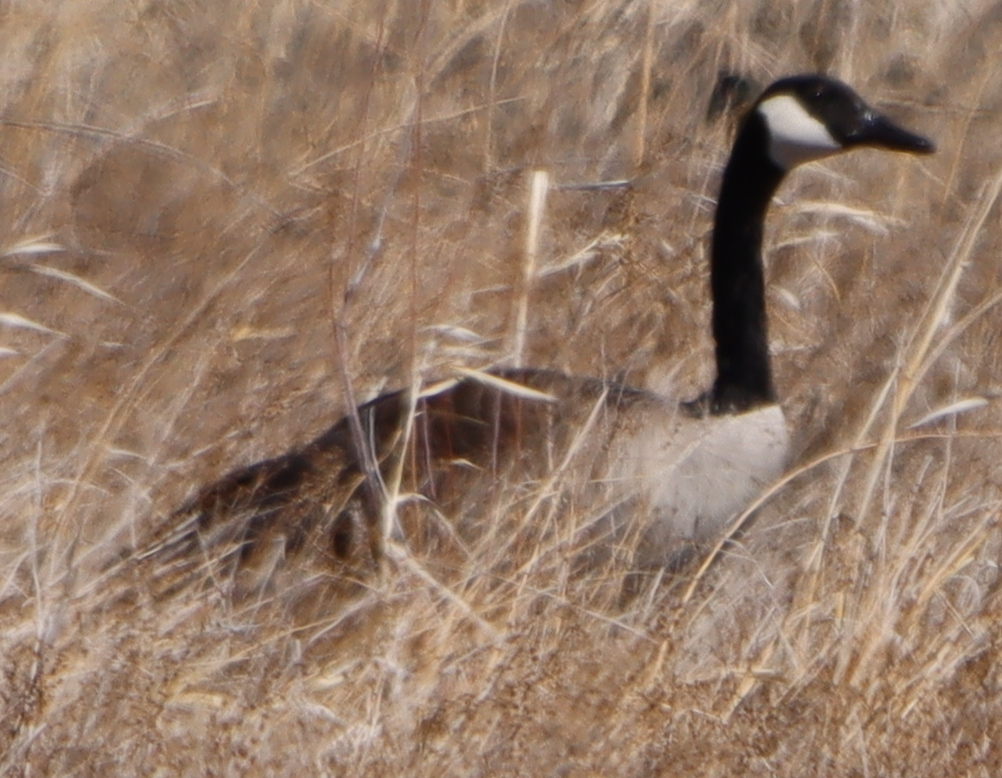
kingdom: Animalia
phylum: Chordata
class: Aves
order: Anseriformes
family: Anatidae
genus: Branta
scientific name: Branta canadensis
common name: Canada goose
